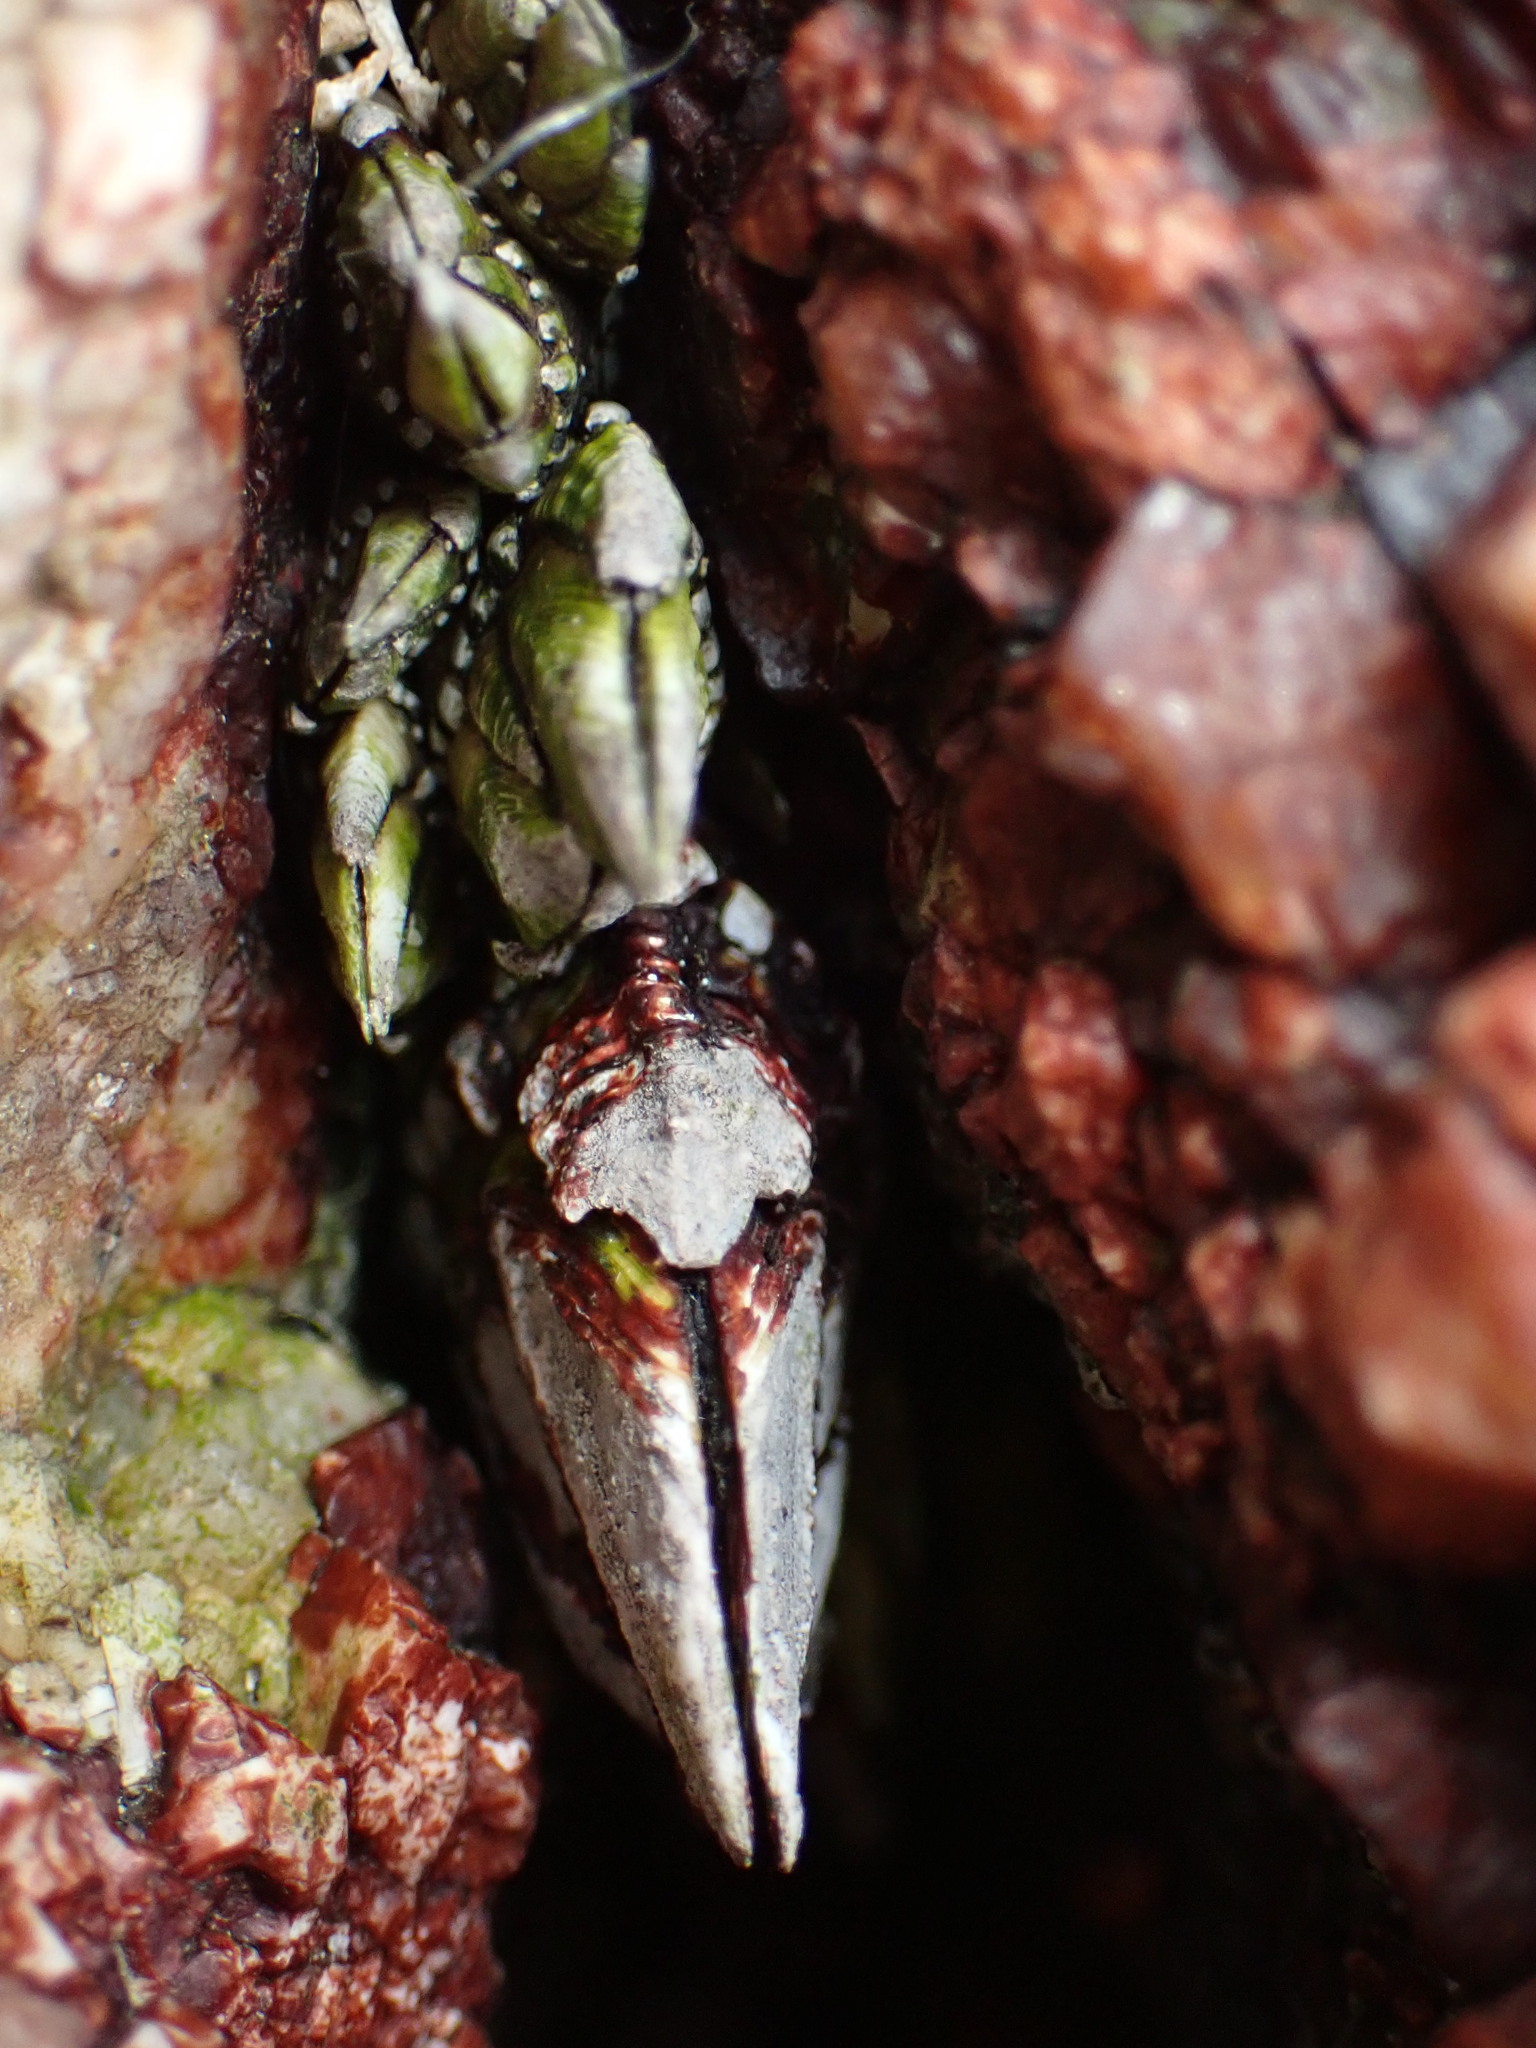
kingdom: Animalia
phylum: Arthropoda
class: Maxillopoda
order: Pedunculata
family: Pollicipedidae
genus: Capitulum
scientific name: Capitulum mitella
